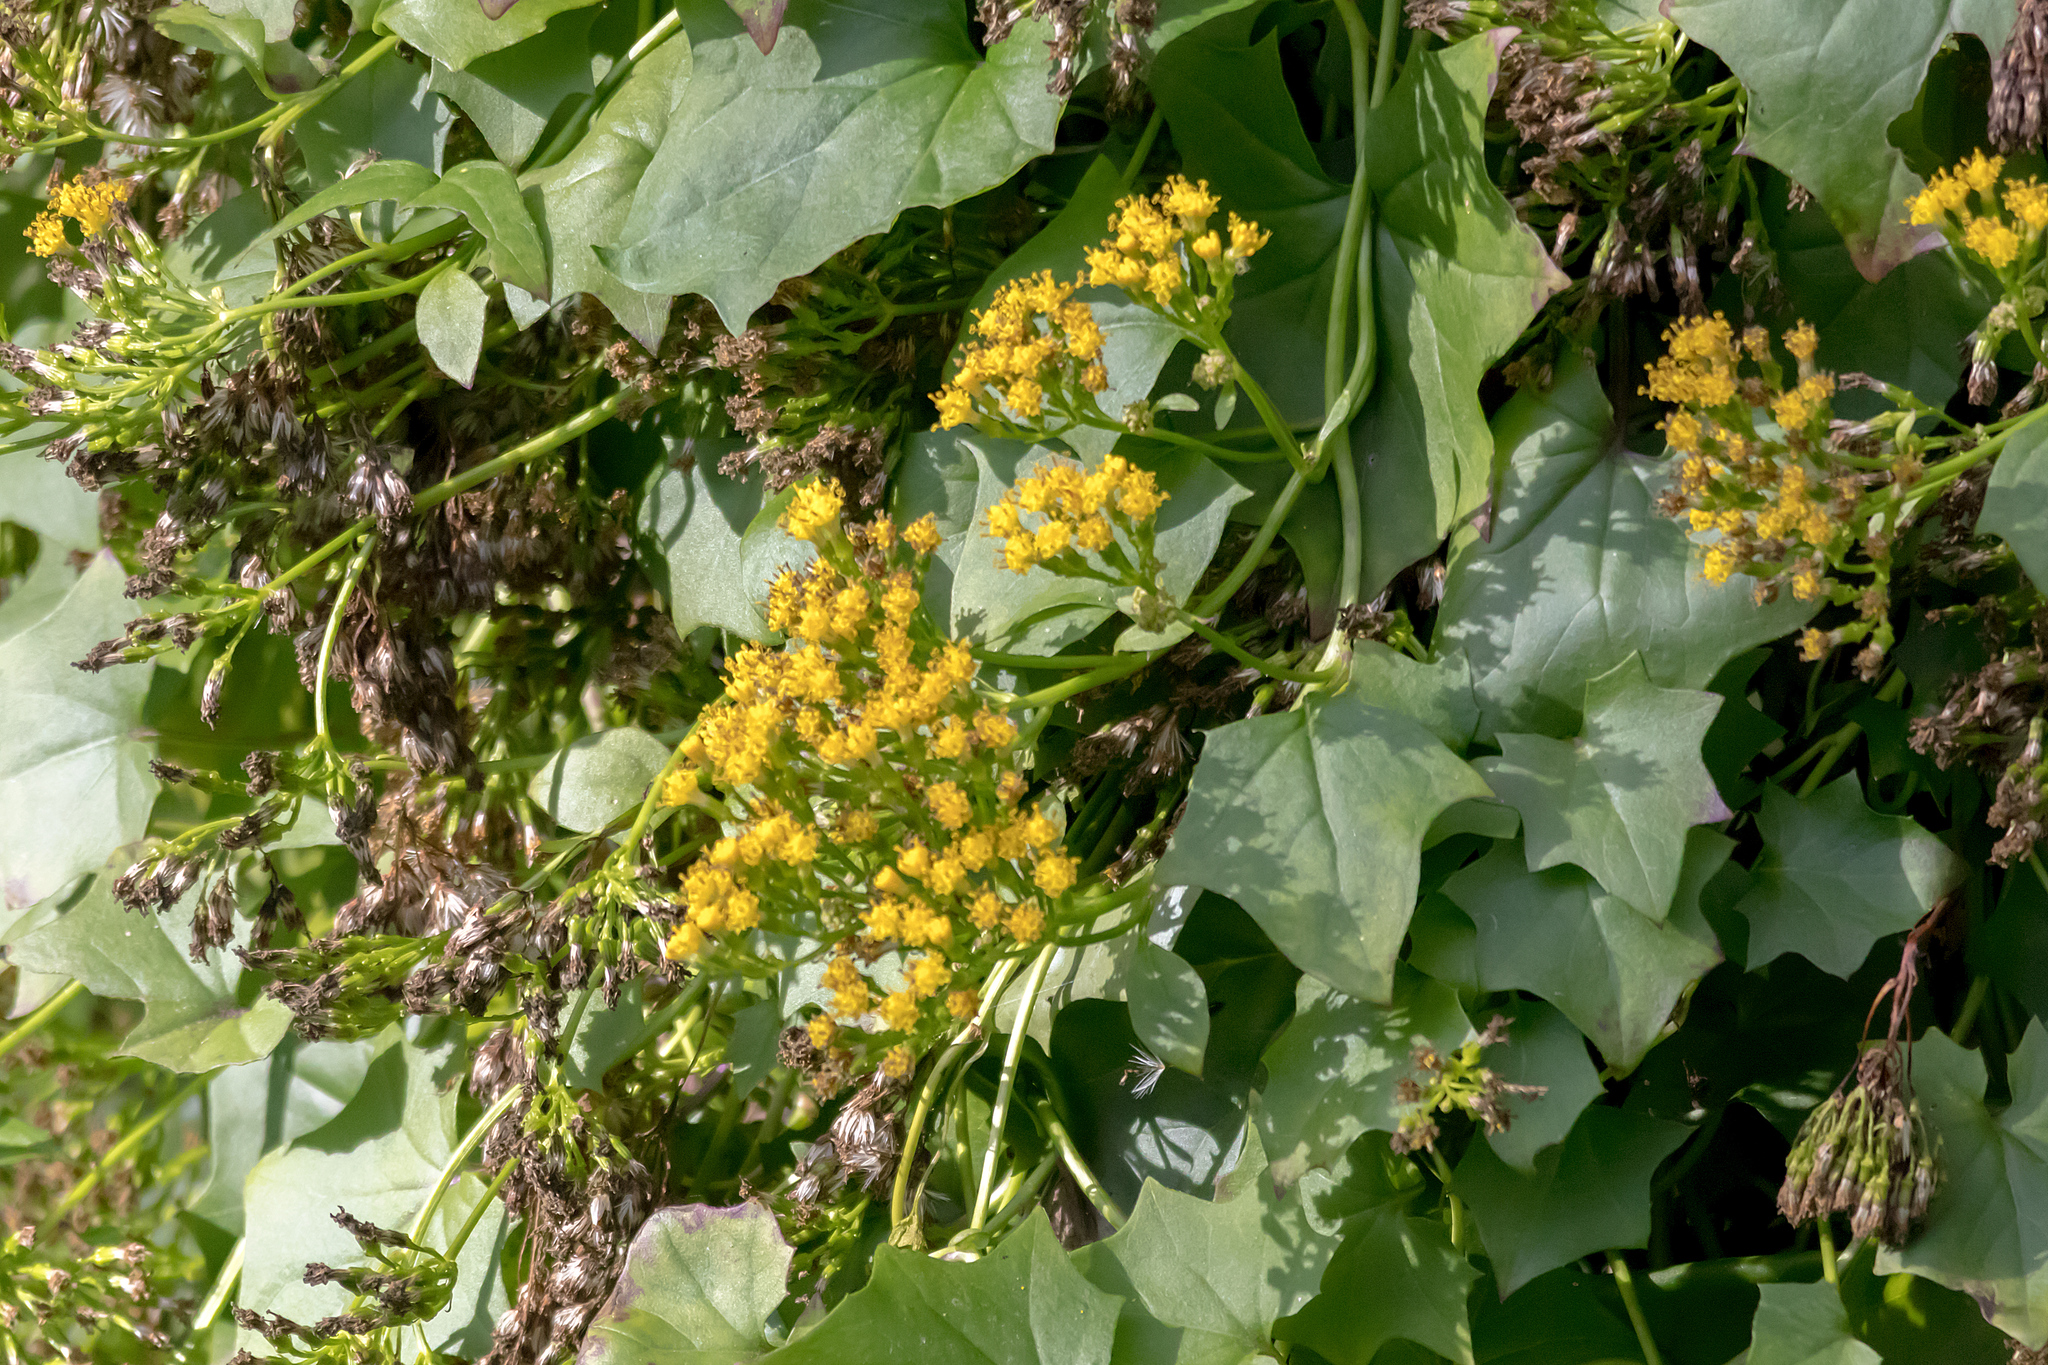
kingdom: Plantae
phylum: Tracheophyta
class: Magnoliopsida
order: Asterales
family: Asteraceae
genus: Delairea
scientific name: Delairea odorata
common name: Cape-ivy
